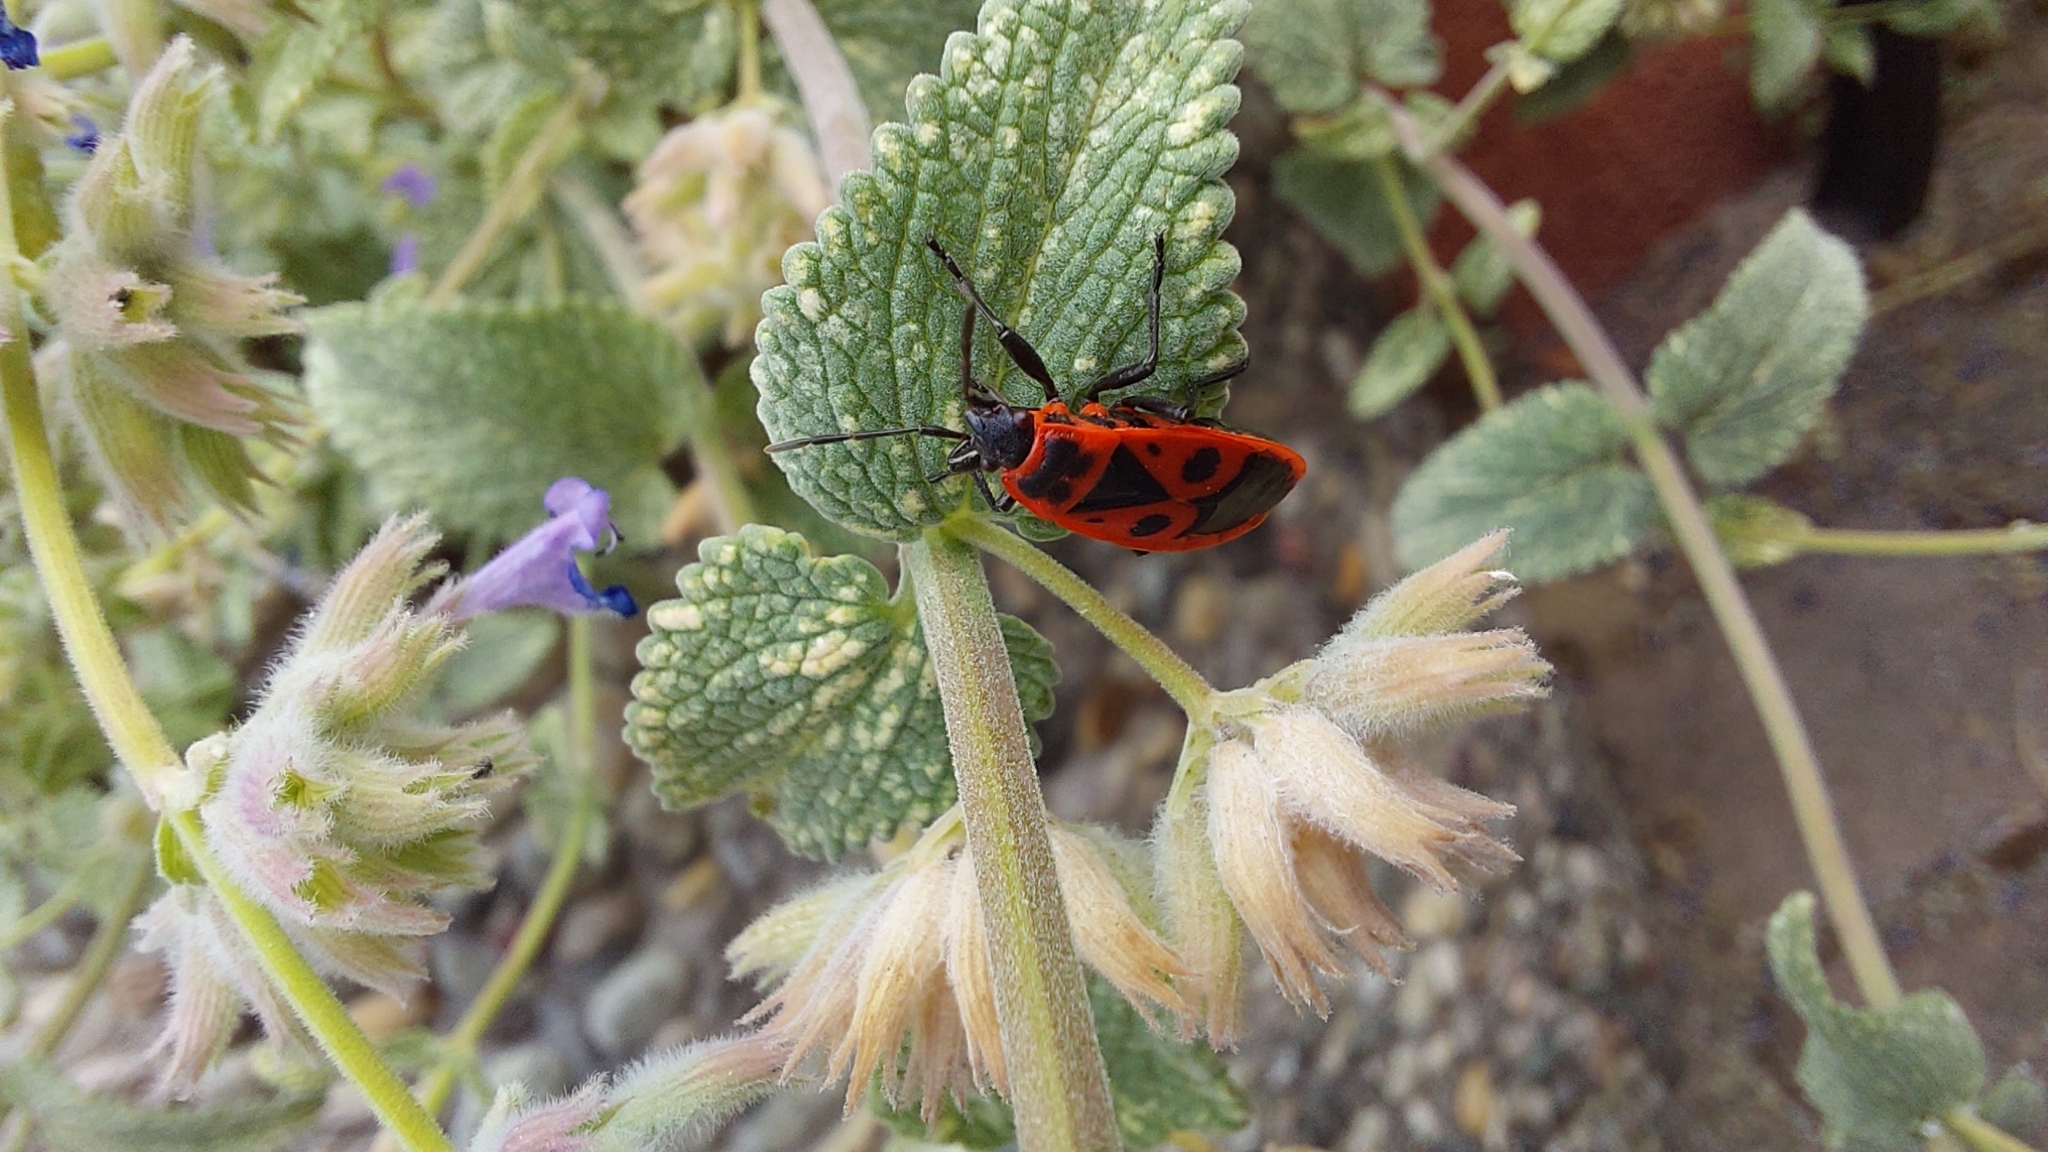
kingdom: Animalia
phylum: Arthropoda
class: Insecta
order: Hemiptera
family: Pyrrhocoridae
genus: Pyrrhocoris
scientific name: Pyrrhocoris apterus
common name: Firebug
